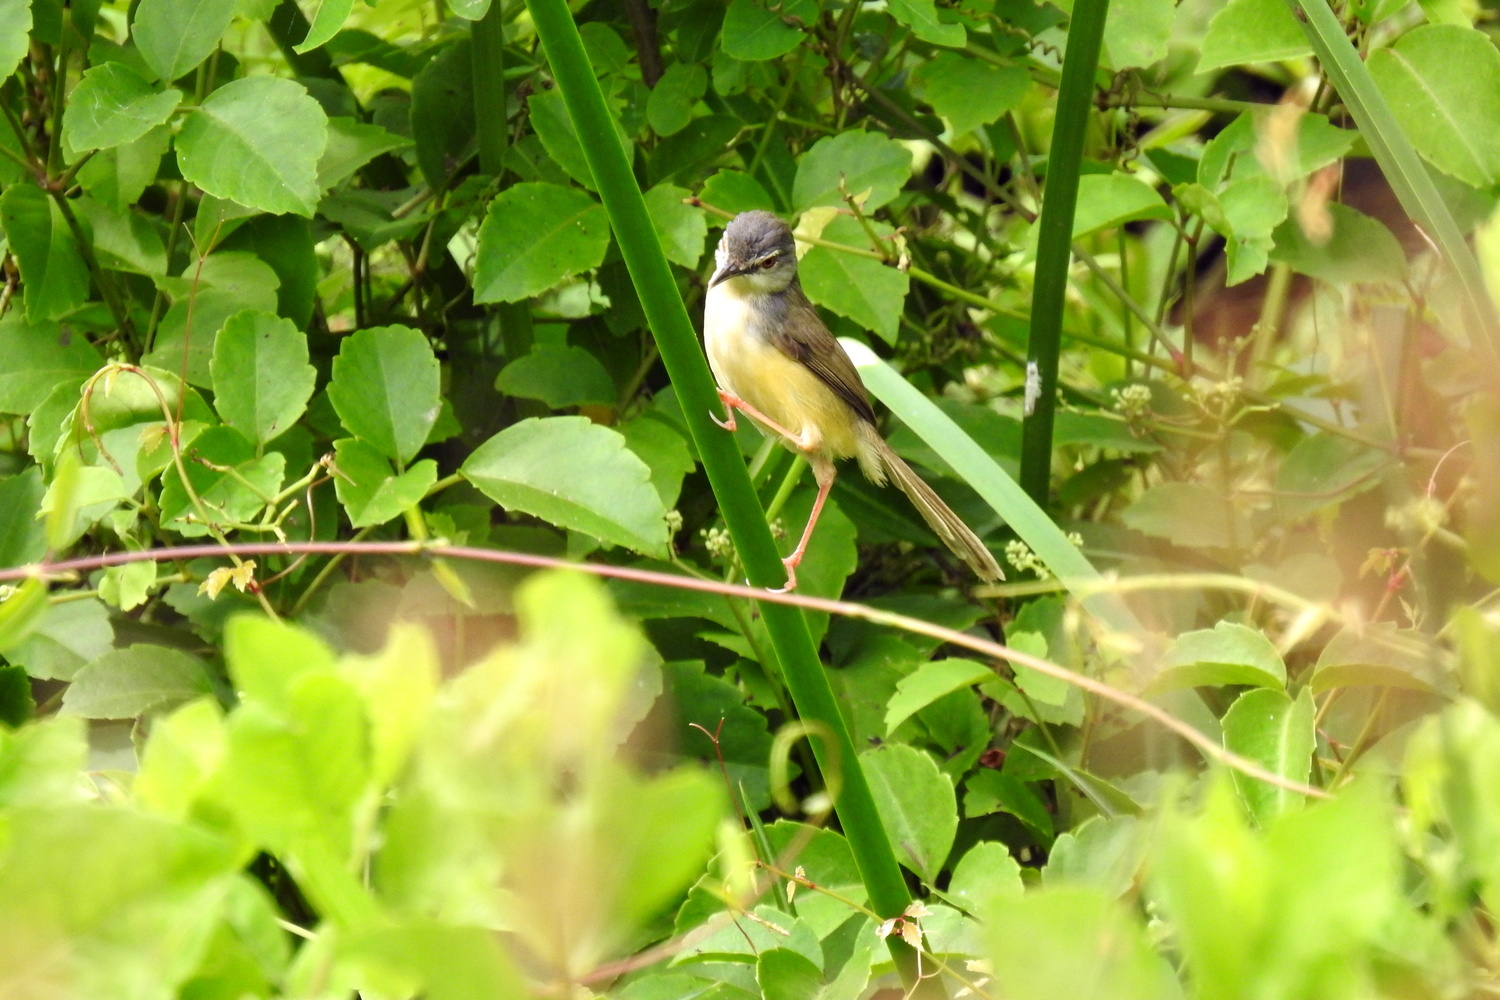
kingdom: Animalia
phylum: Chordata
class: Aves
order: Passeriformes
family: Cisticolidae
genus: Prinia
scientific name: Prinia flaviventris
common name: Yellow-bellied prinia
